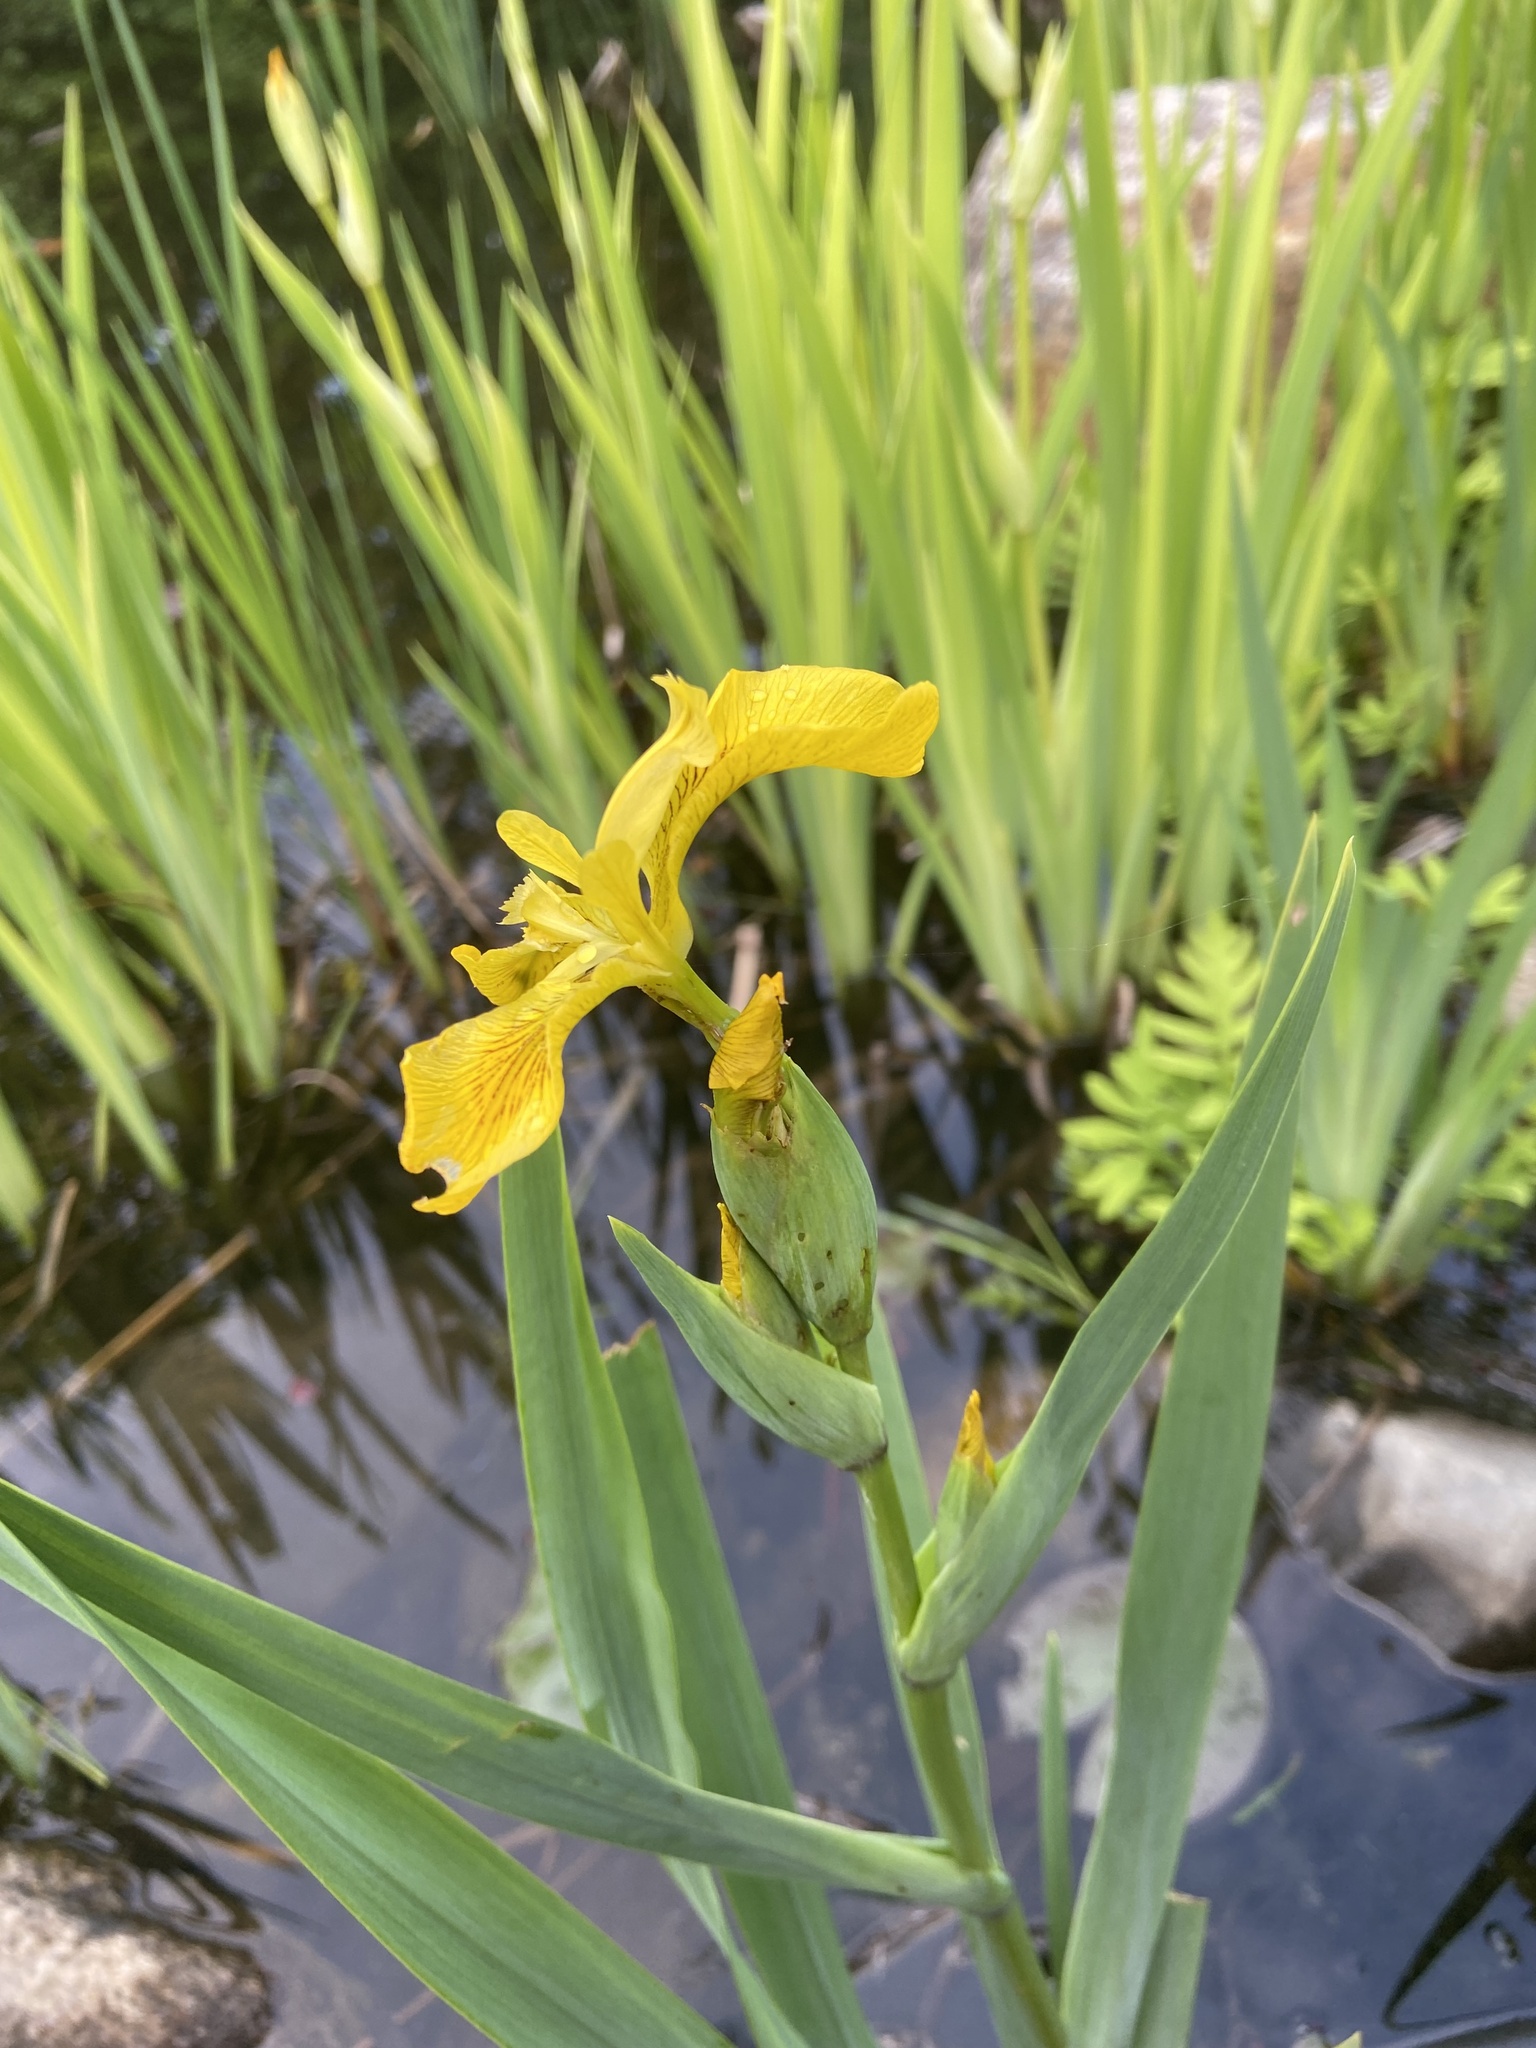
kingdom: Plantae
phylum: Tracheophyta
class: Liliopsida
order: Asparagales
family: Iridaceae
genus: Iris
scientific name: Iris pseudacorus
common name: Yellow flag
